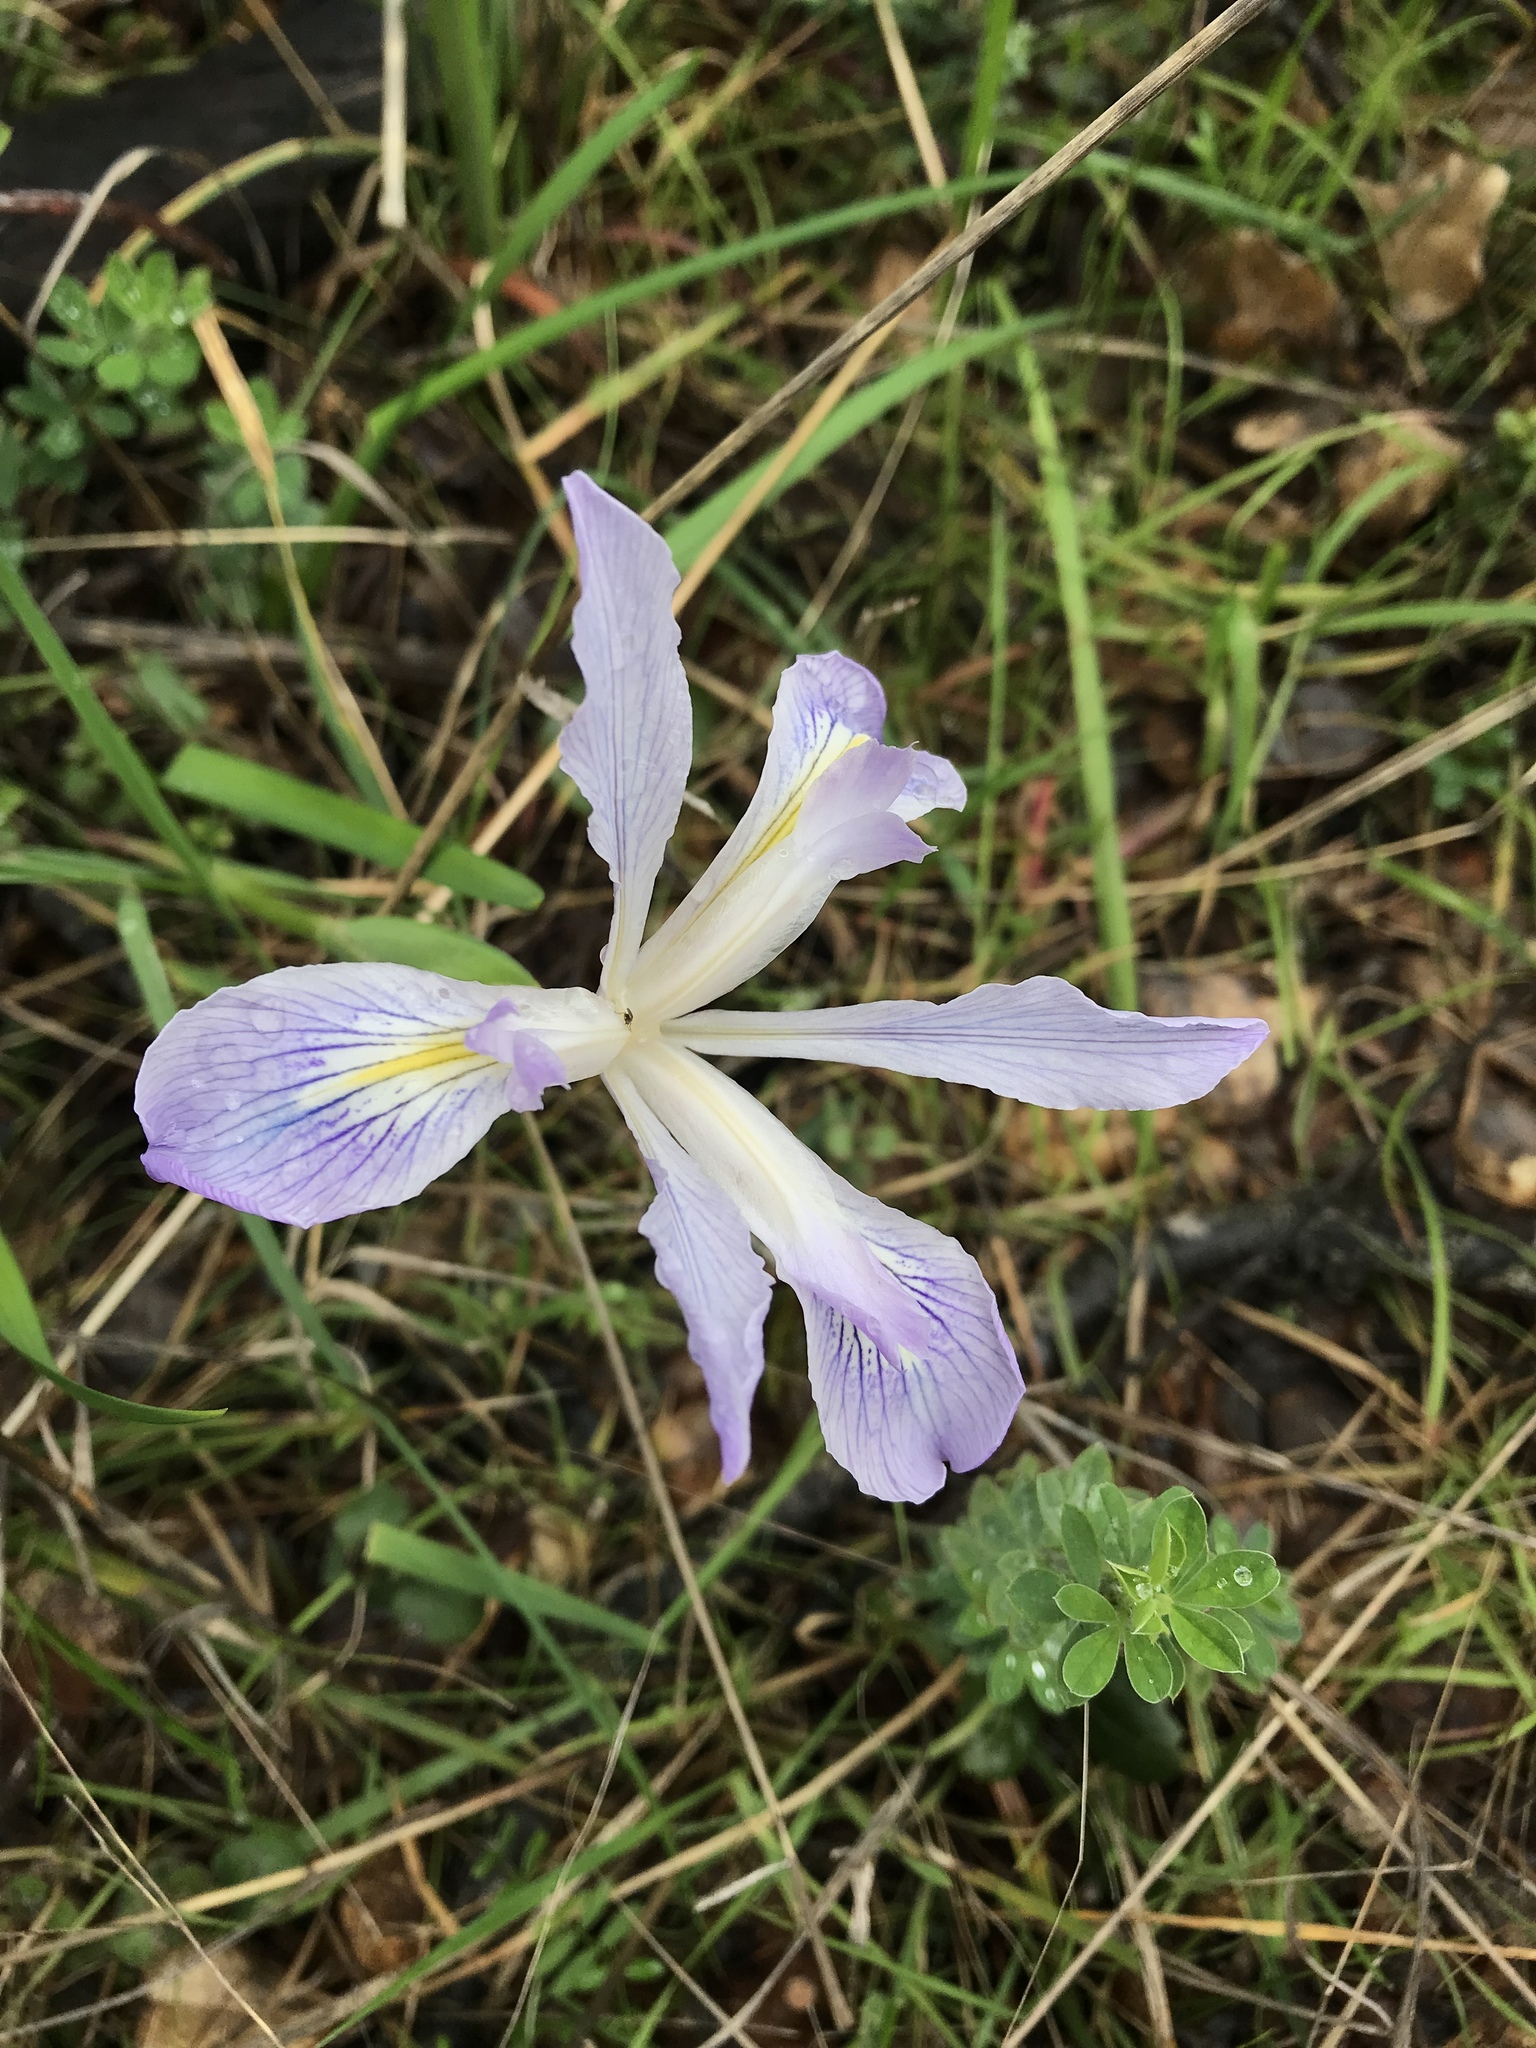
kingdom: Plantae
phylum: Tracheophyta
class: Liliopsida
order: Asparagales
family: Iridaceae
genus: Iris
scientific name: Iris douglasiana
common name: Marin iris
